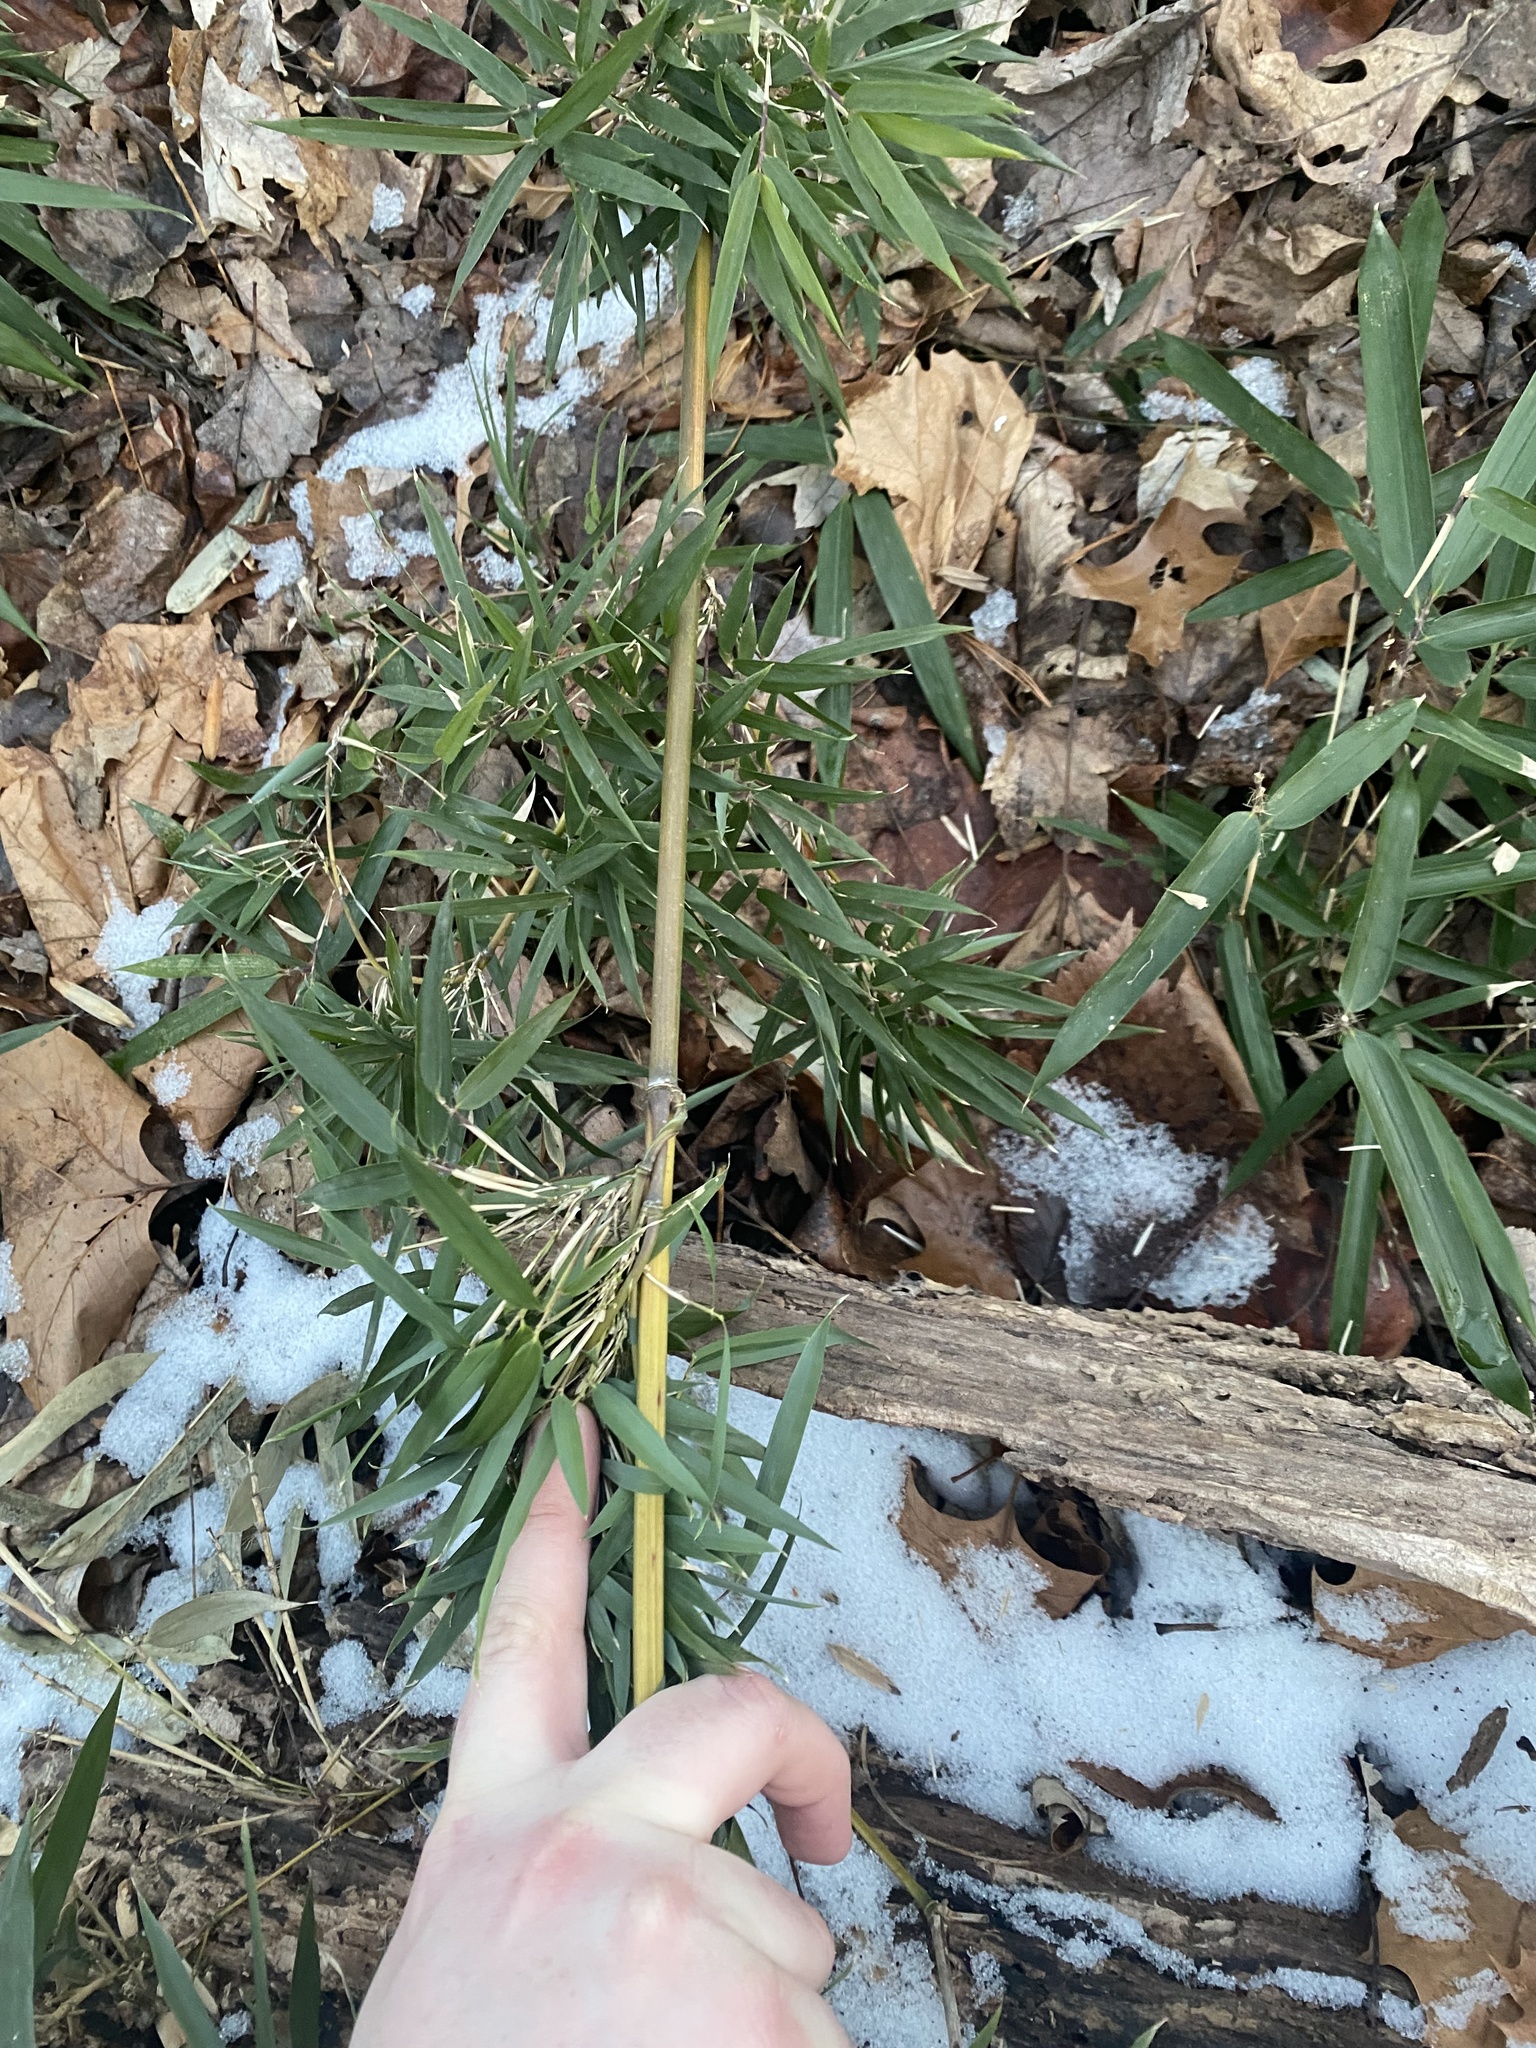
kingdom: Plantae
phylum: Tracheophyta
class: Liliopsida
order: Poales
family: Poaceae
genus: Phyllostachys
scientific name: Phyllostachys aureosulcata
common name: Yellow groove bamboo
